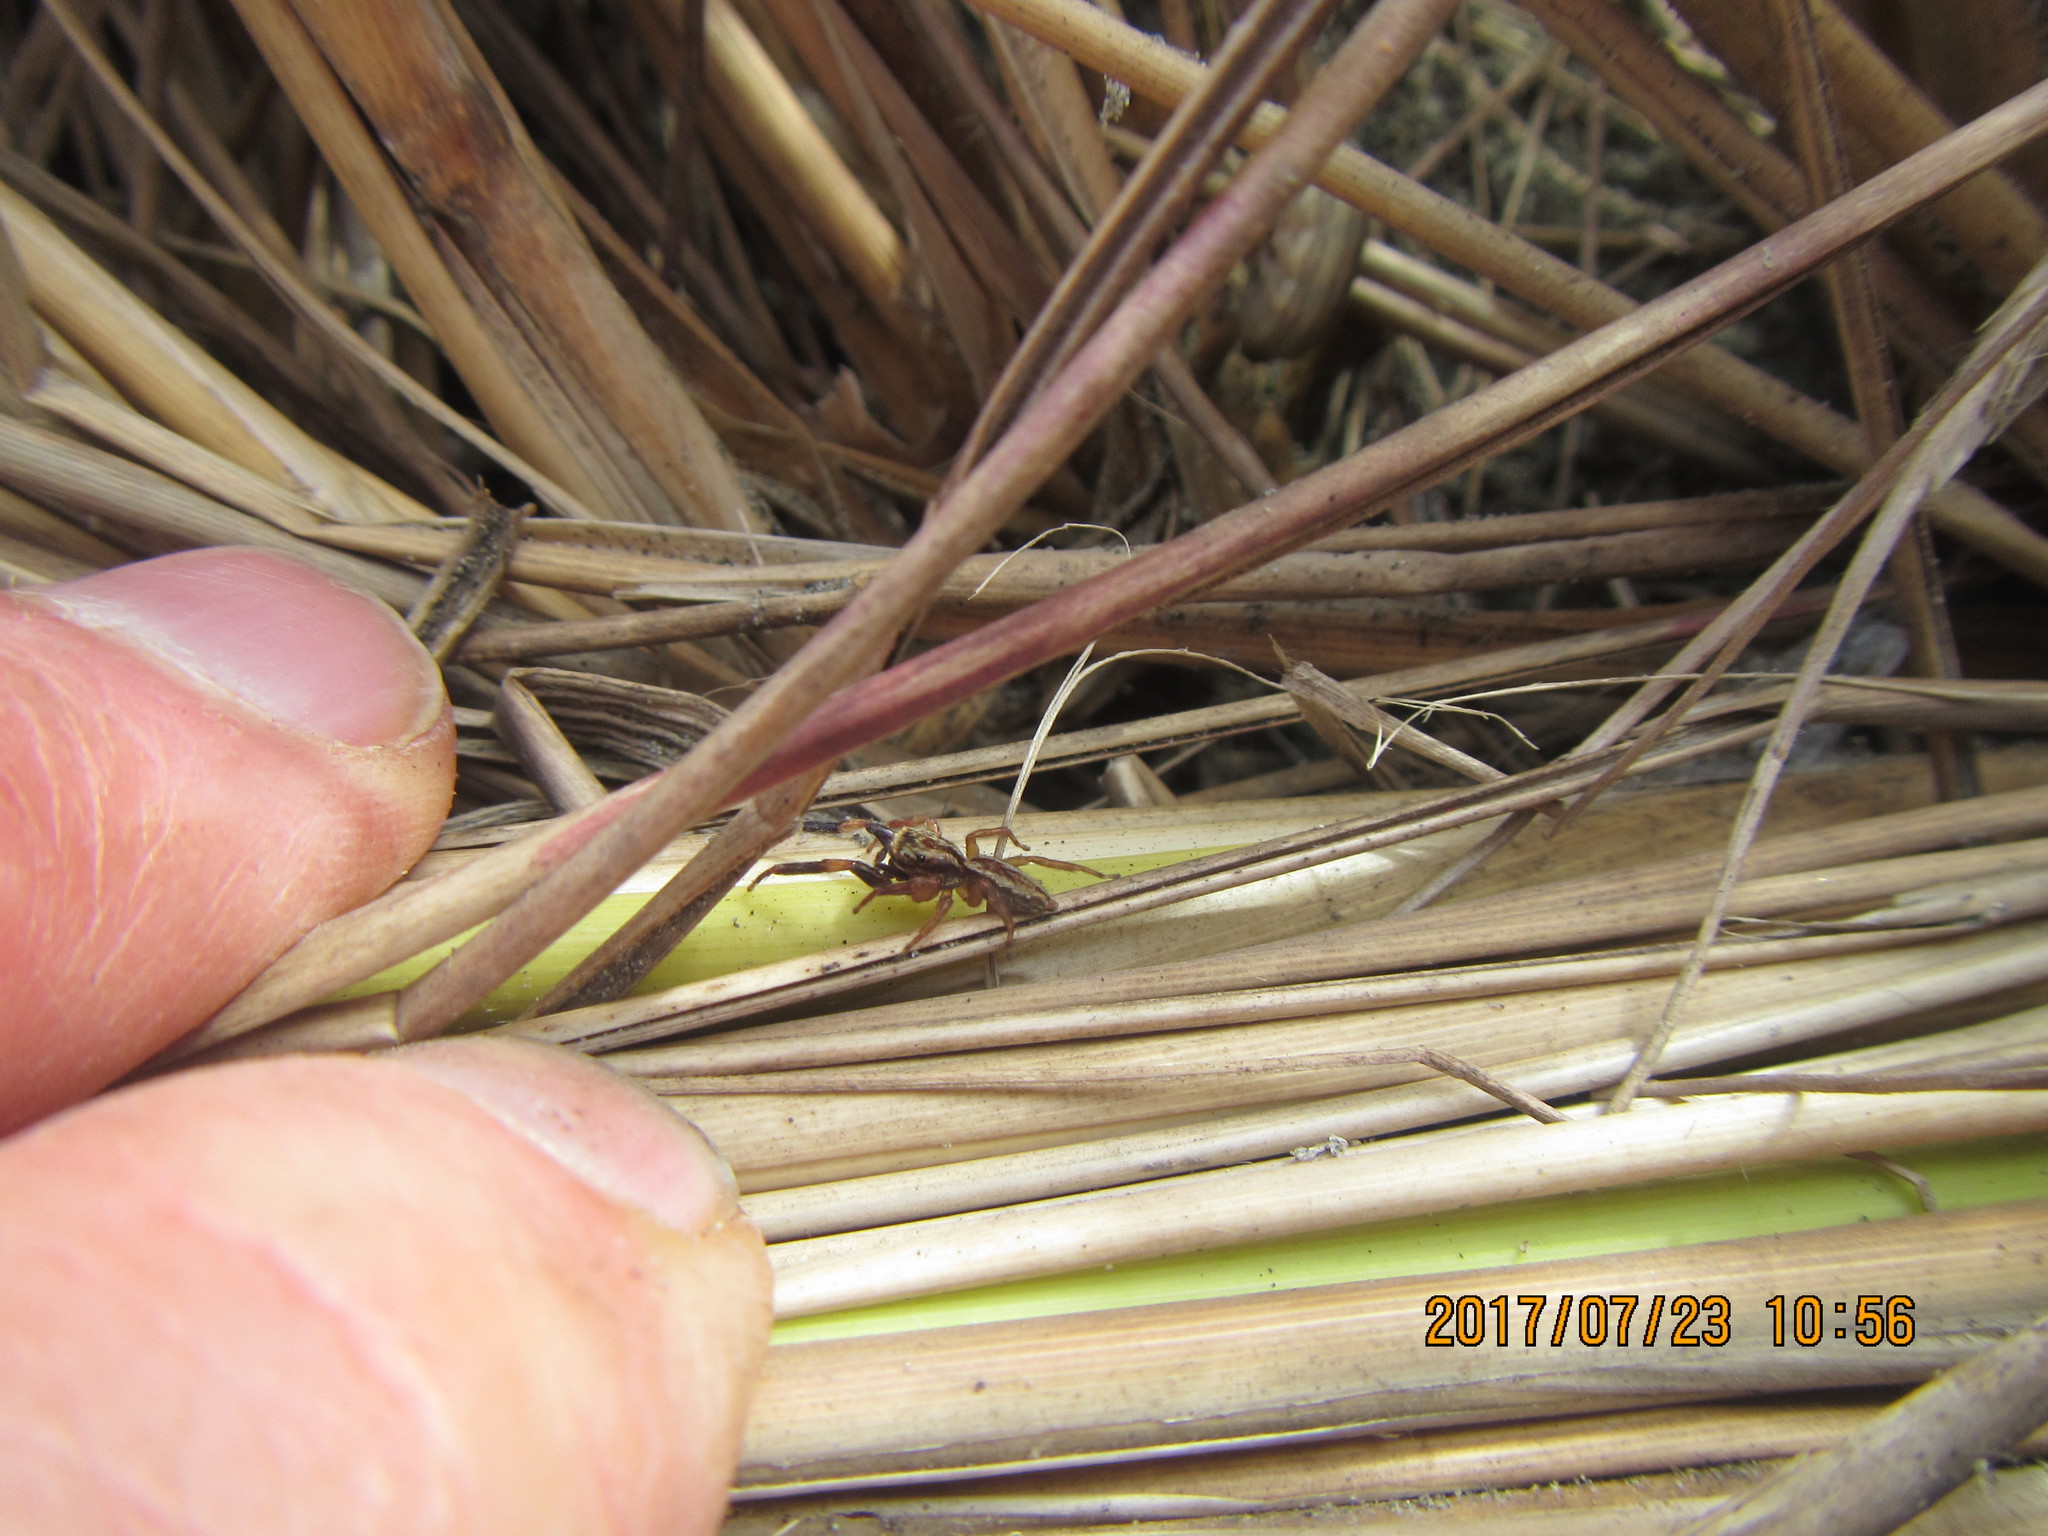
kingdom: Animalia
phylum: Arthropoda
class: Arachnida
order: Araneae
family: Salticidae
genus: Trite
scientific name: Trite auricoma
